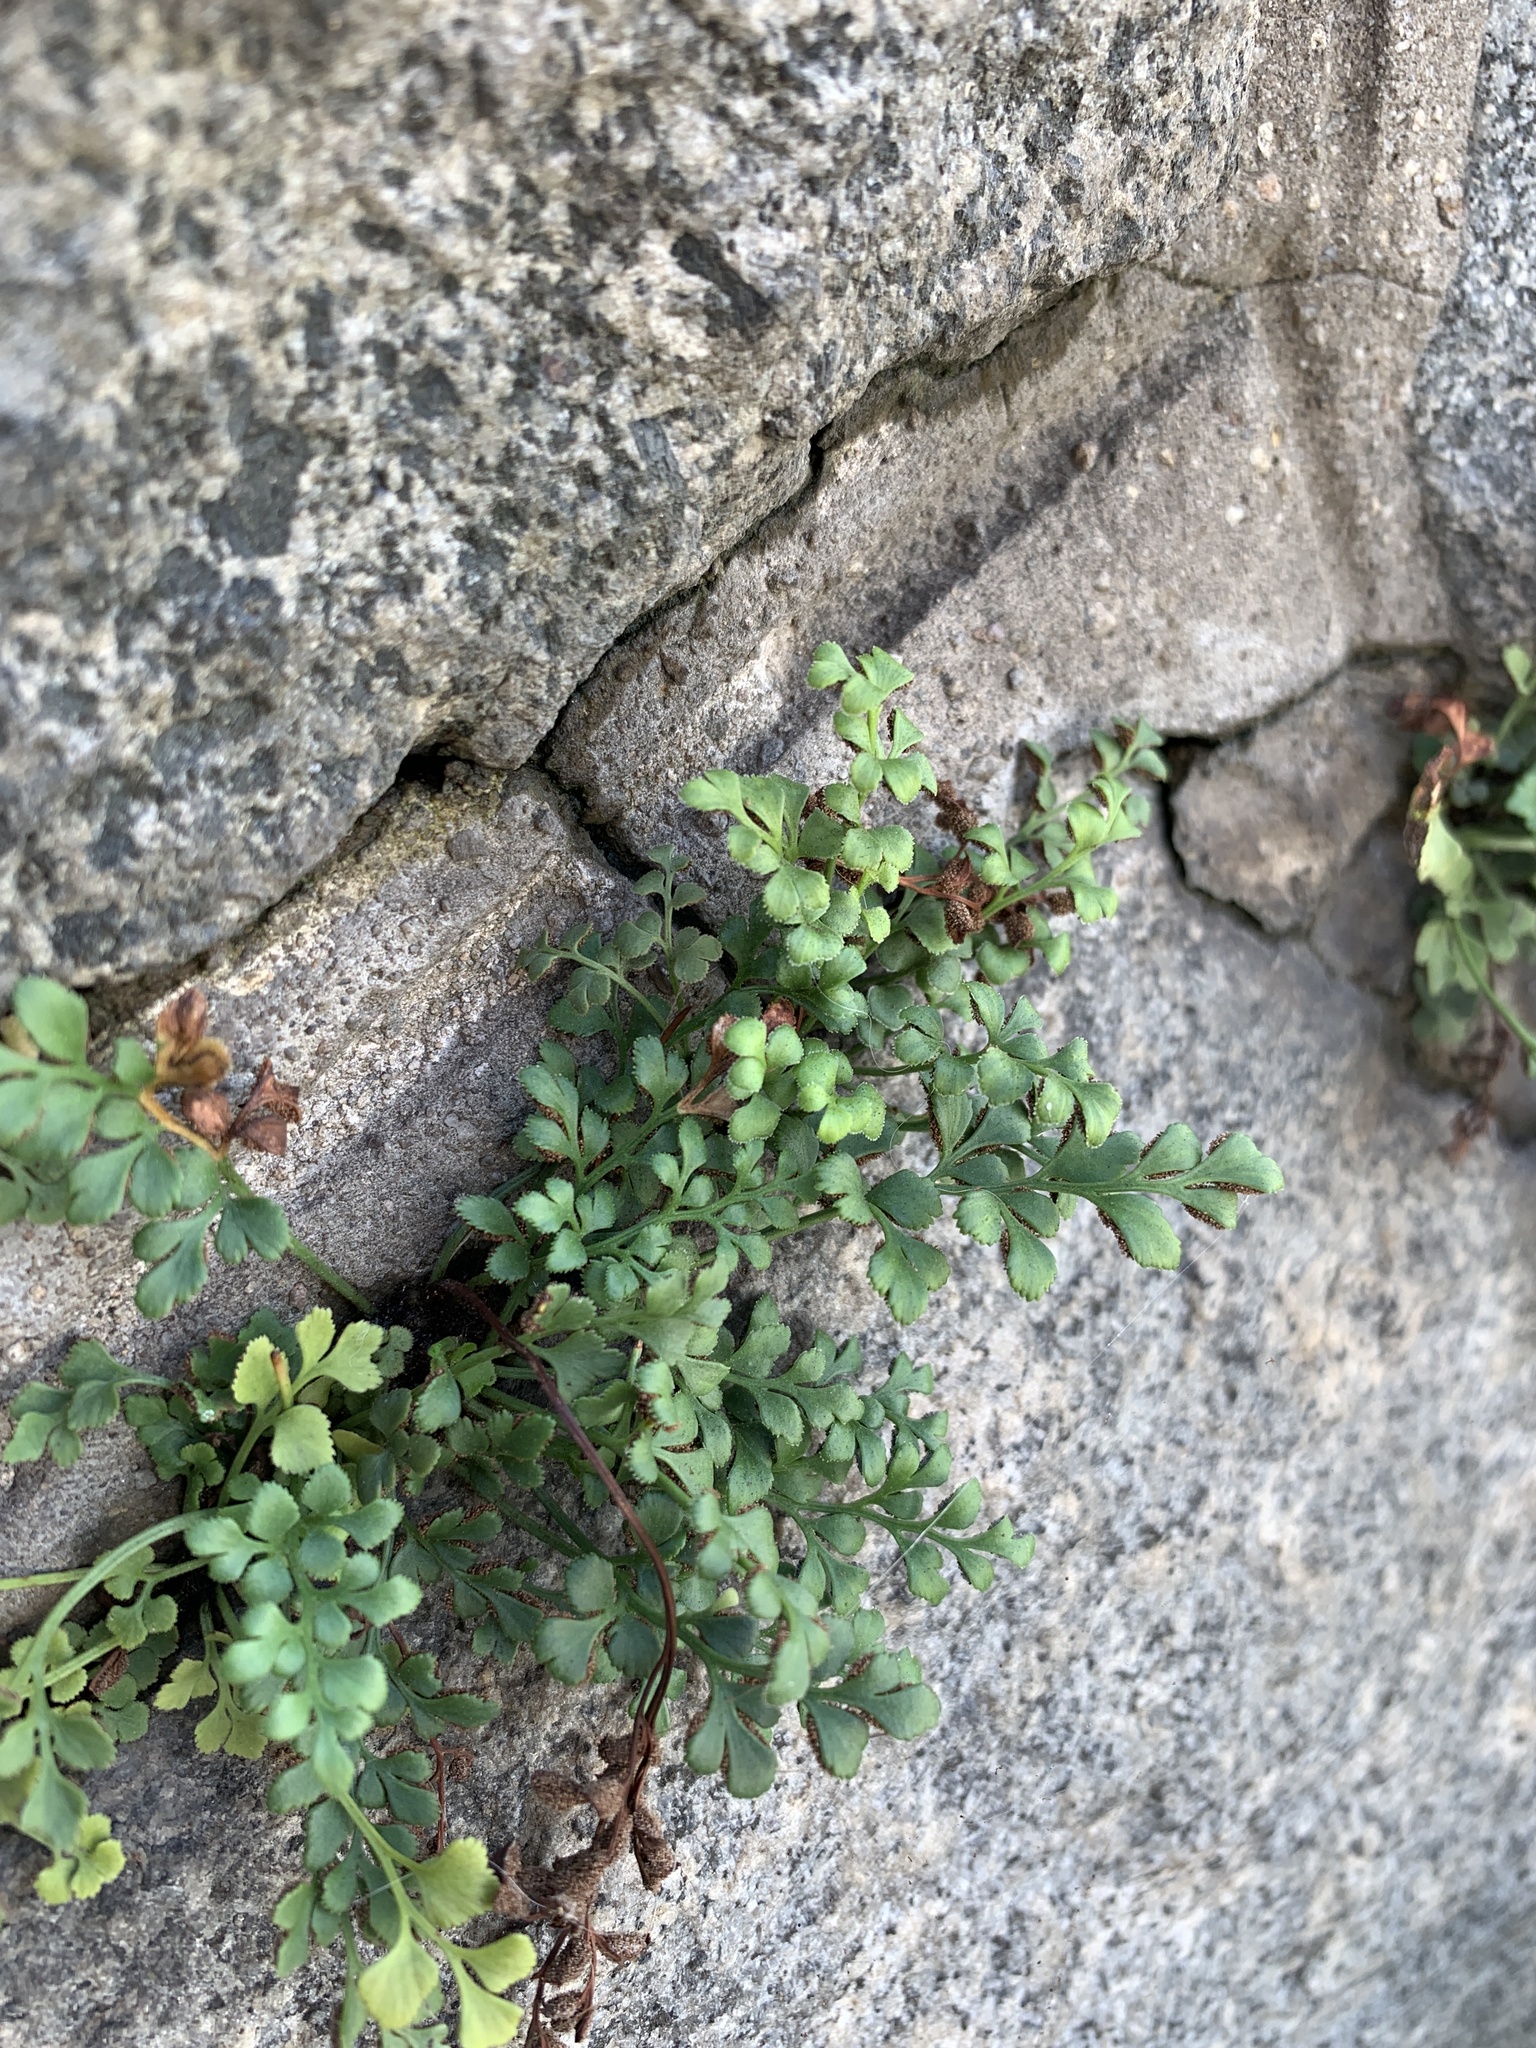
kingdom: Plantae
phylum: Tracheophyta
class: Polypodiopsida
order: Polypodiales
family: Aspleniaceae
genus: Asplenium
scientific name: Asplenium ruta-muraria
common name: Wall-rue
